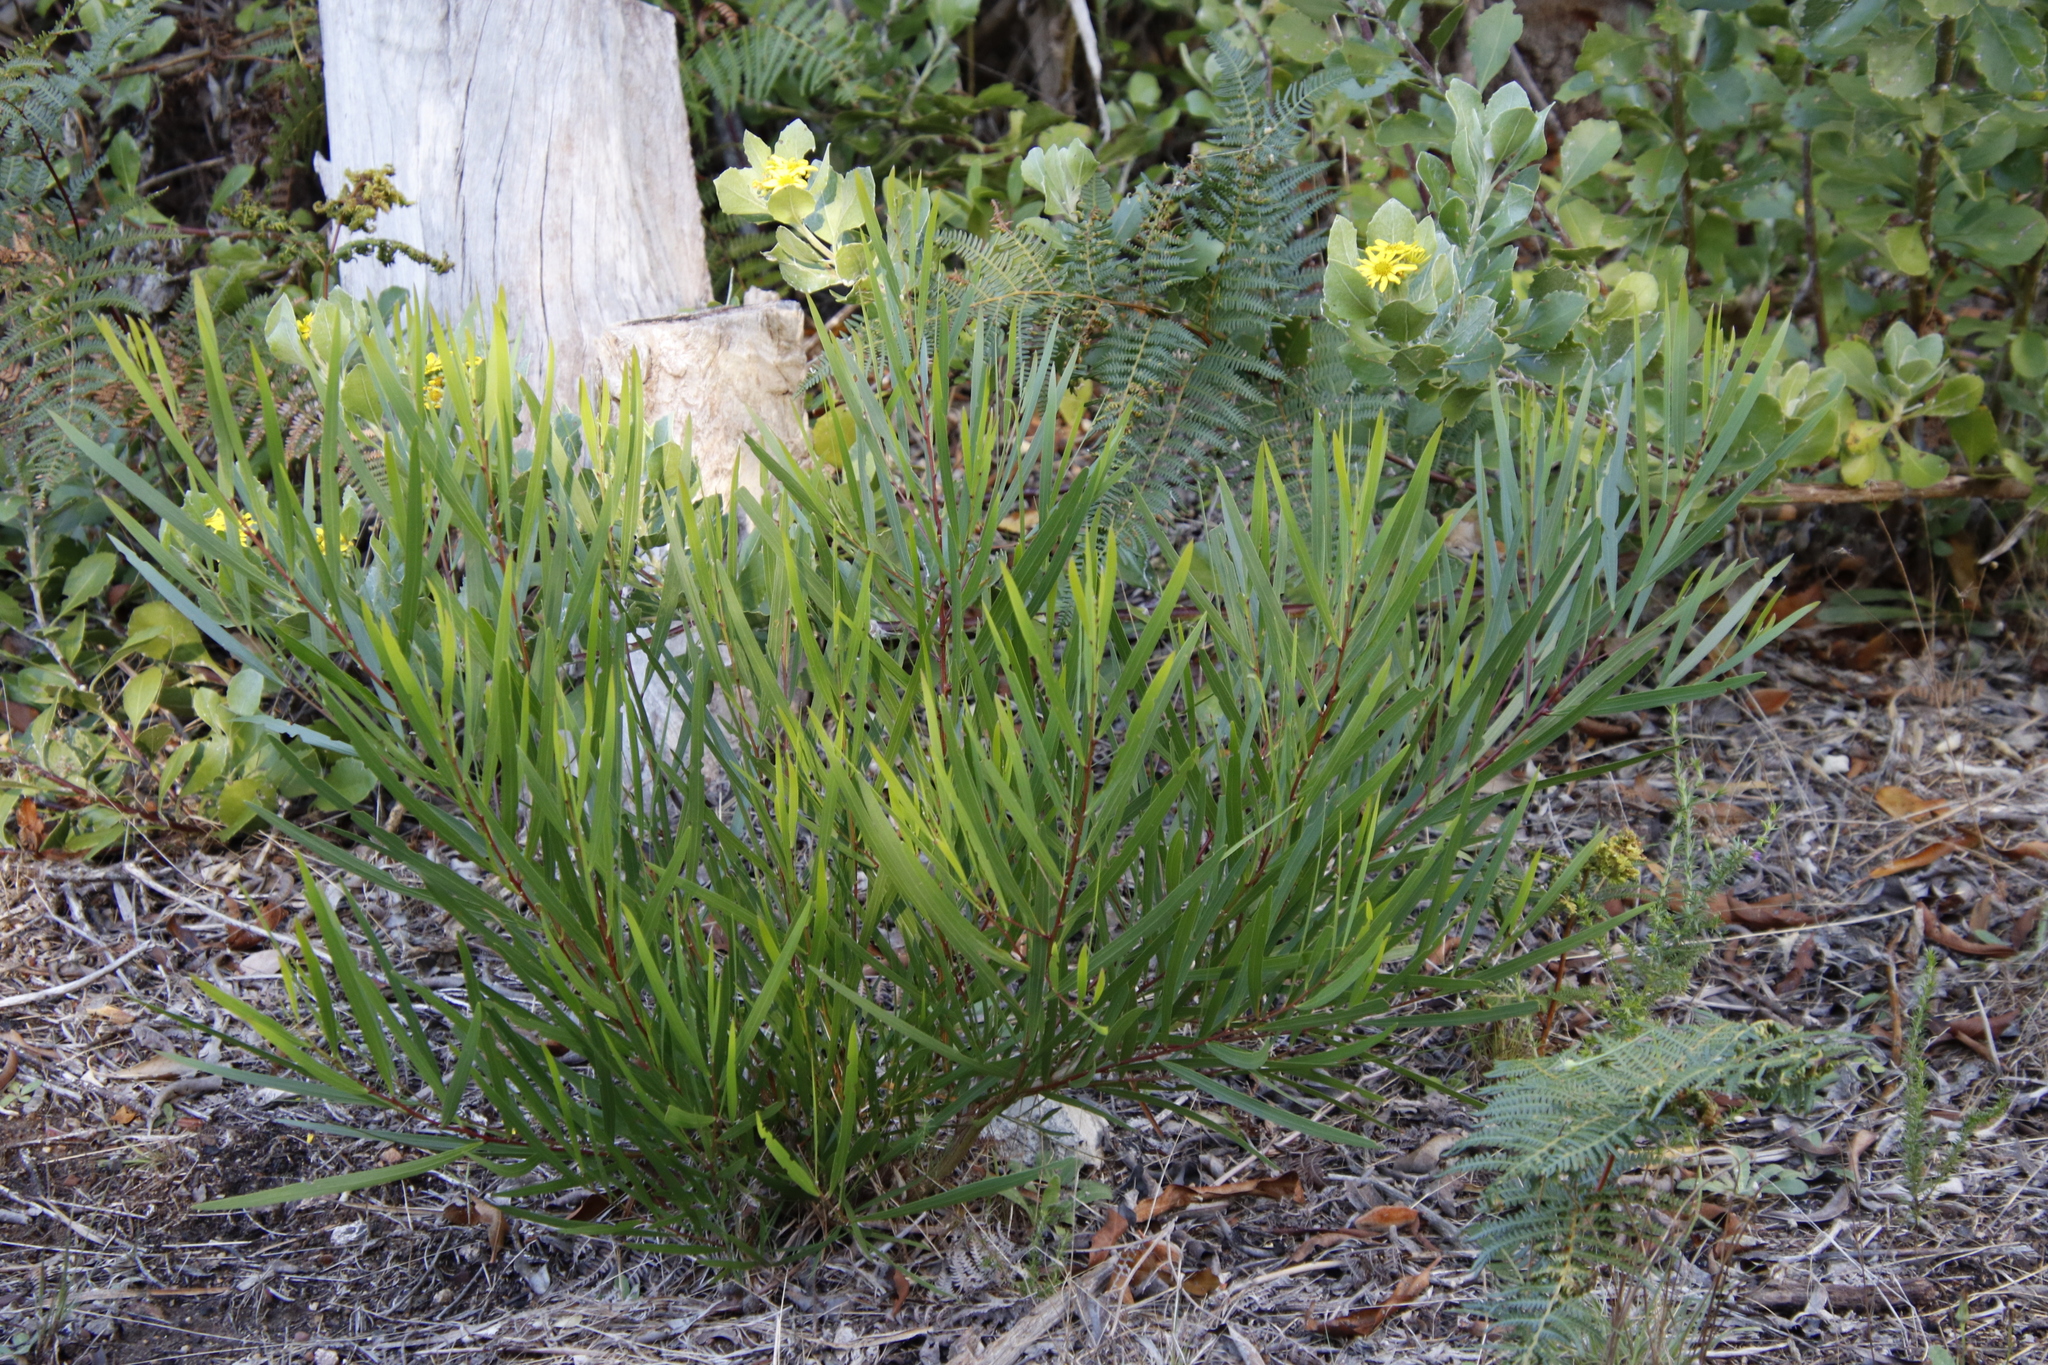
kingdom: Plantae
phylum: Tracheophyta
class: Magnoliopsida
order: Fabales
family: Fabaceae
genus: Acacia
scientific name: Acacia longifolia
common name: Sydney golden wattle
